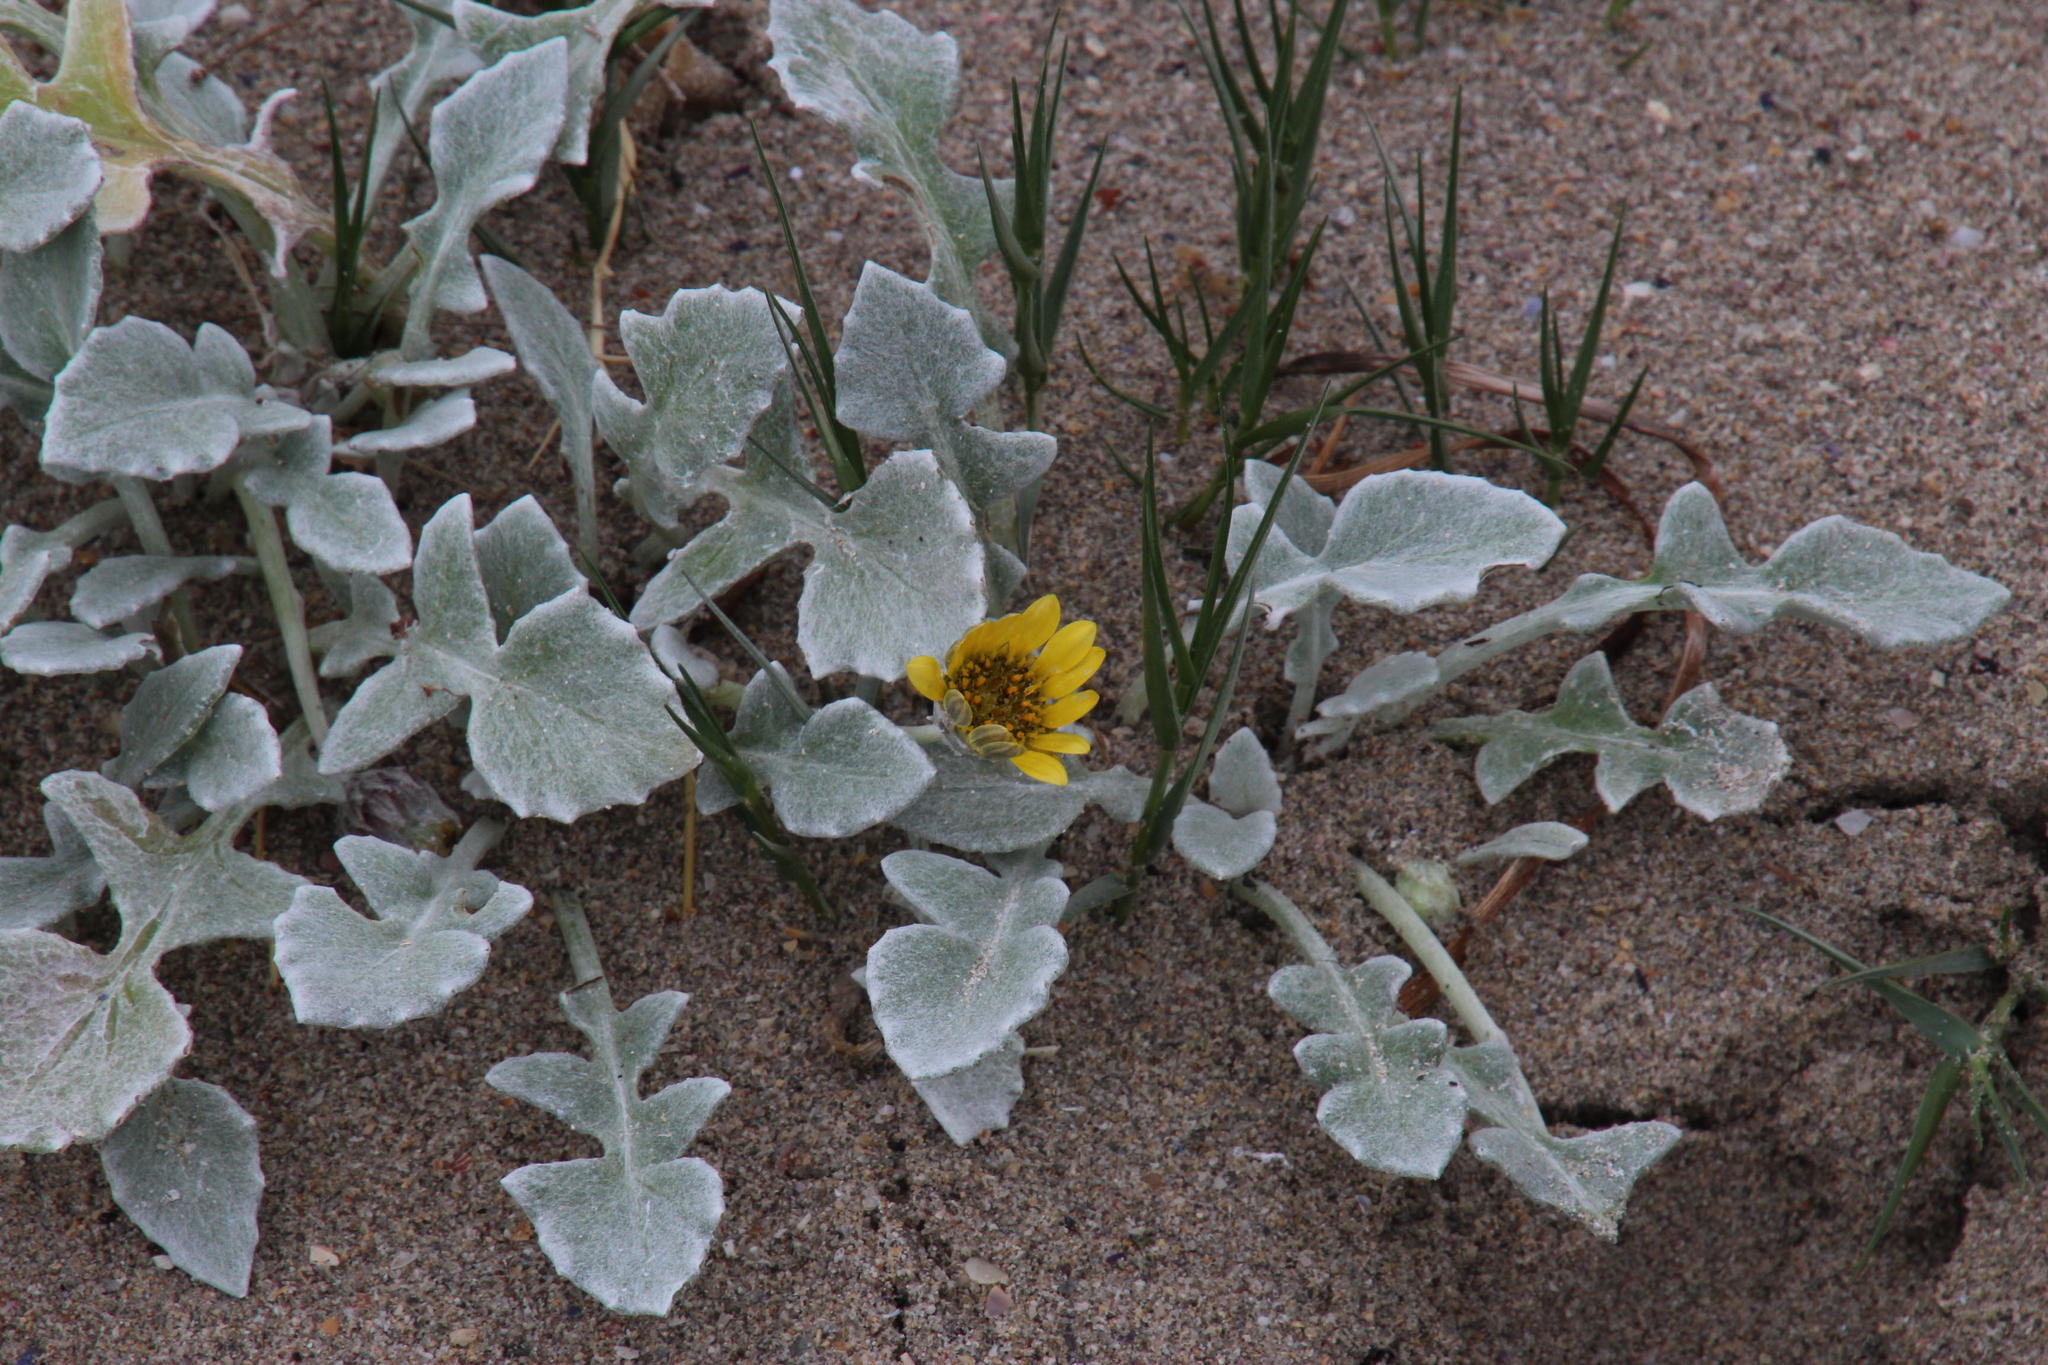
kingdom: Plantae
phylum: Tracheophyta
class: Magnoliopsida
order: Asterales
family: Asteraceae
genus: Arctotheca
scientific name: Arctotheca populifolia
